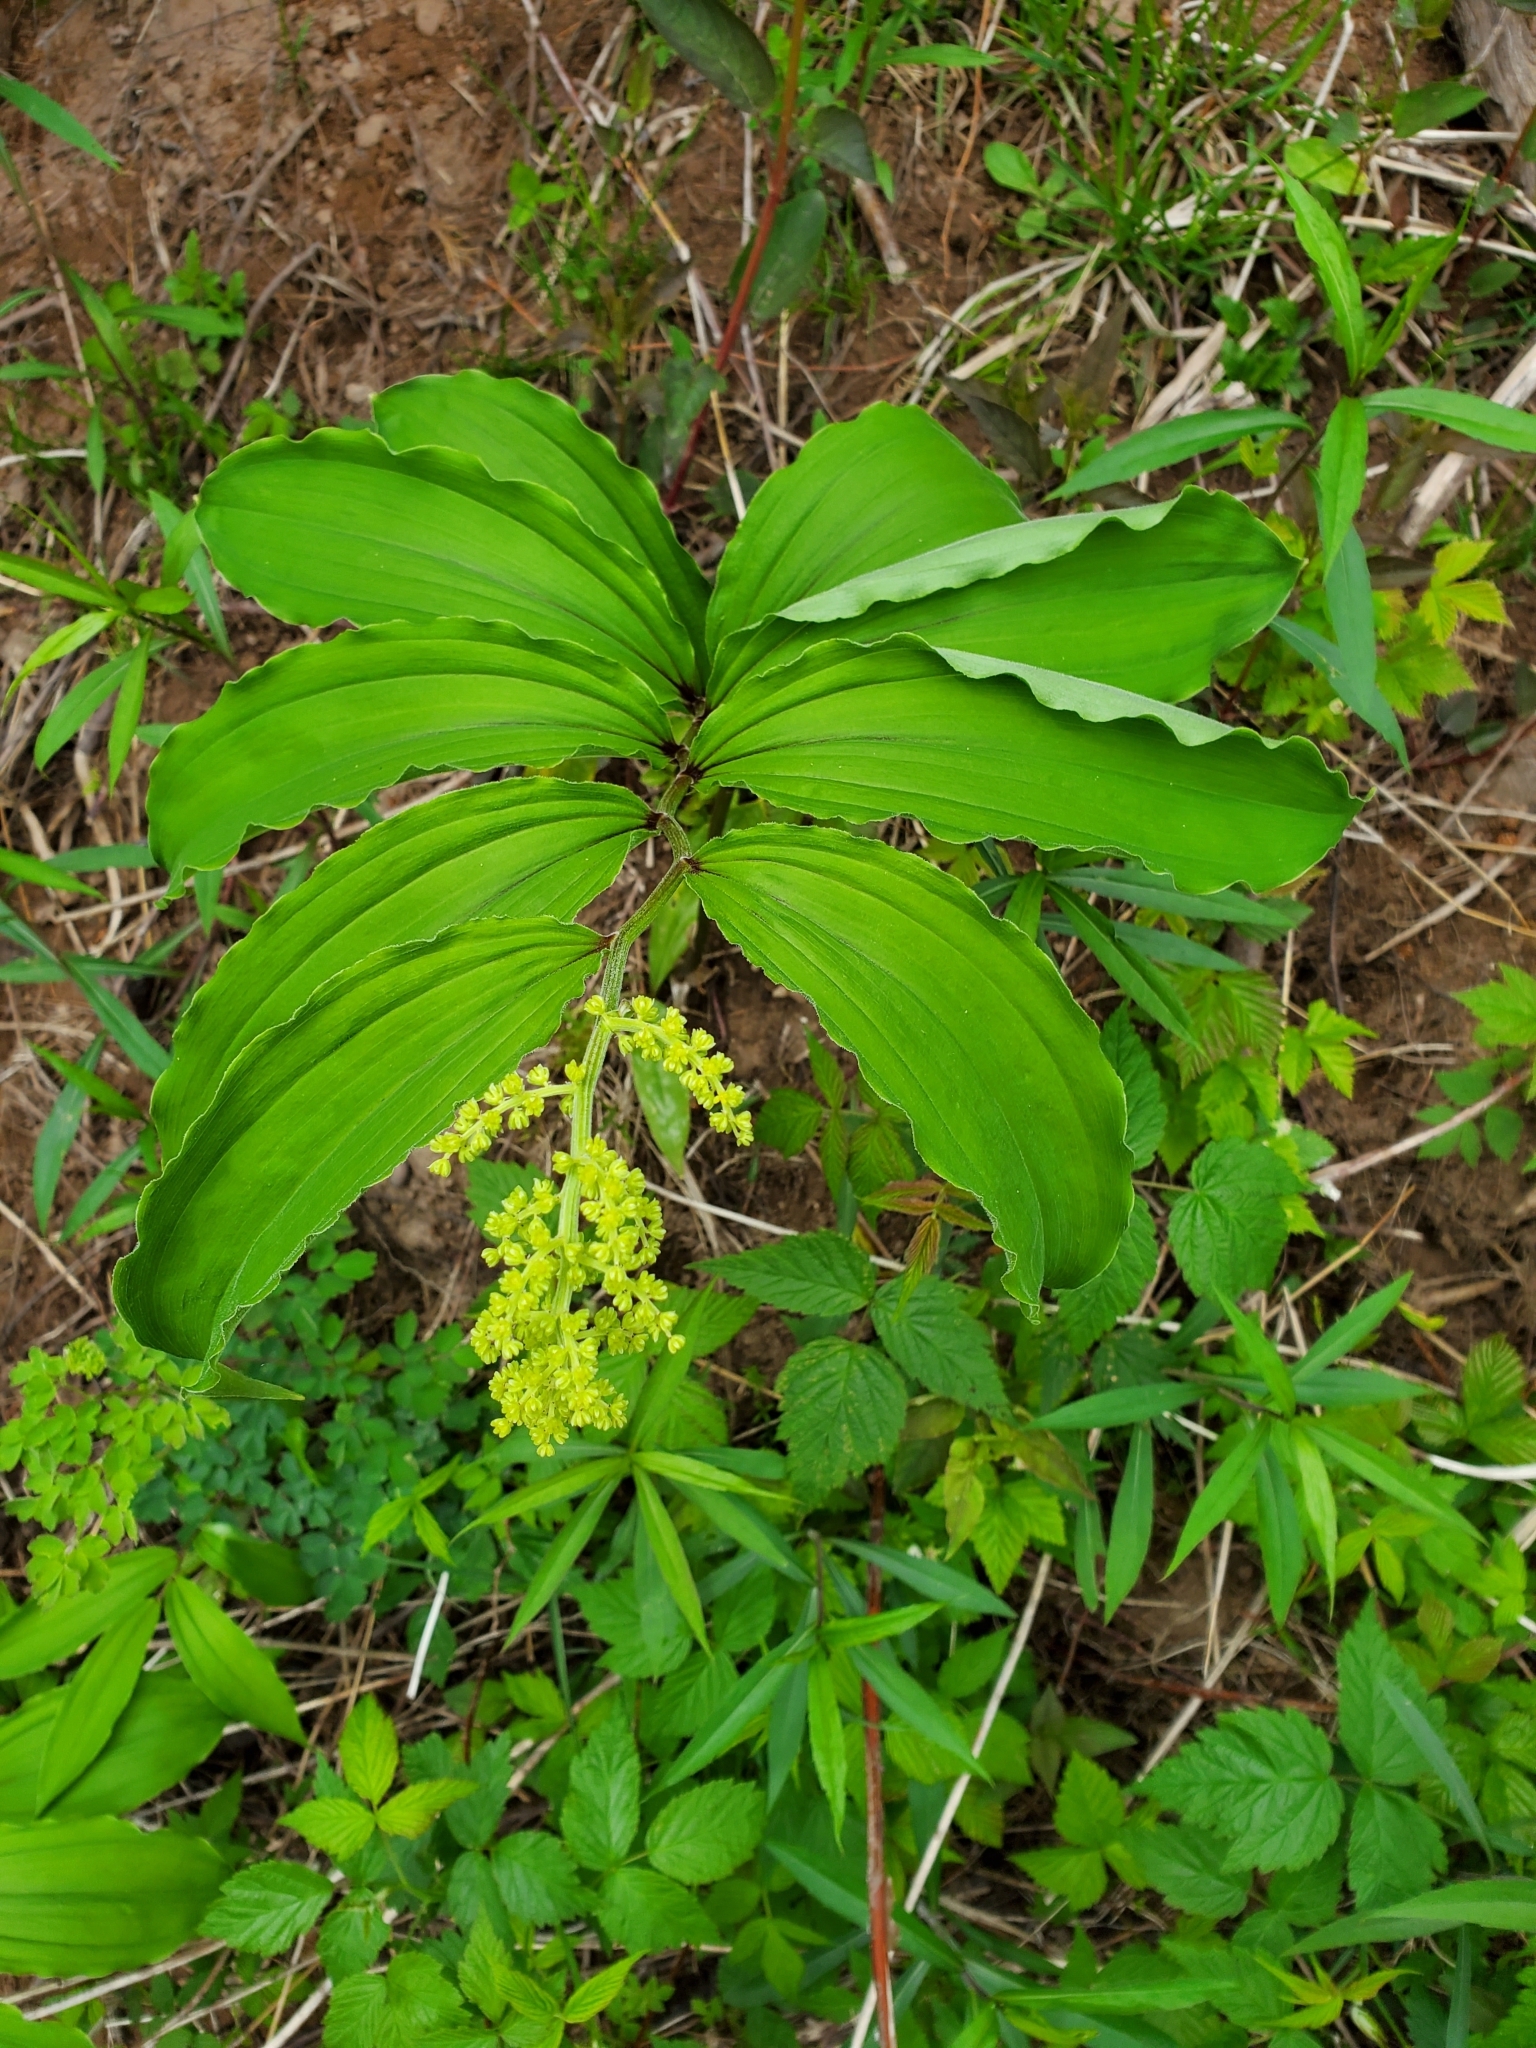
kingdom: Plantae
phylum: Tracheophyta
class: Liliopsida
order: Asparagales
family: Asparagaceae
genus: Maianthemum
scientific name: Maianthemum racemosum
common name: False spikenard
